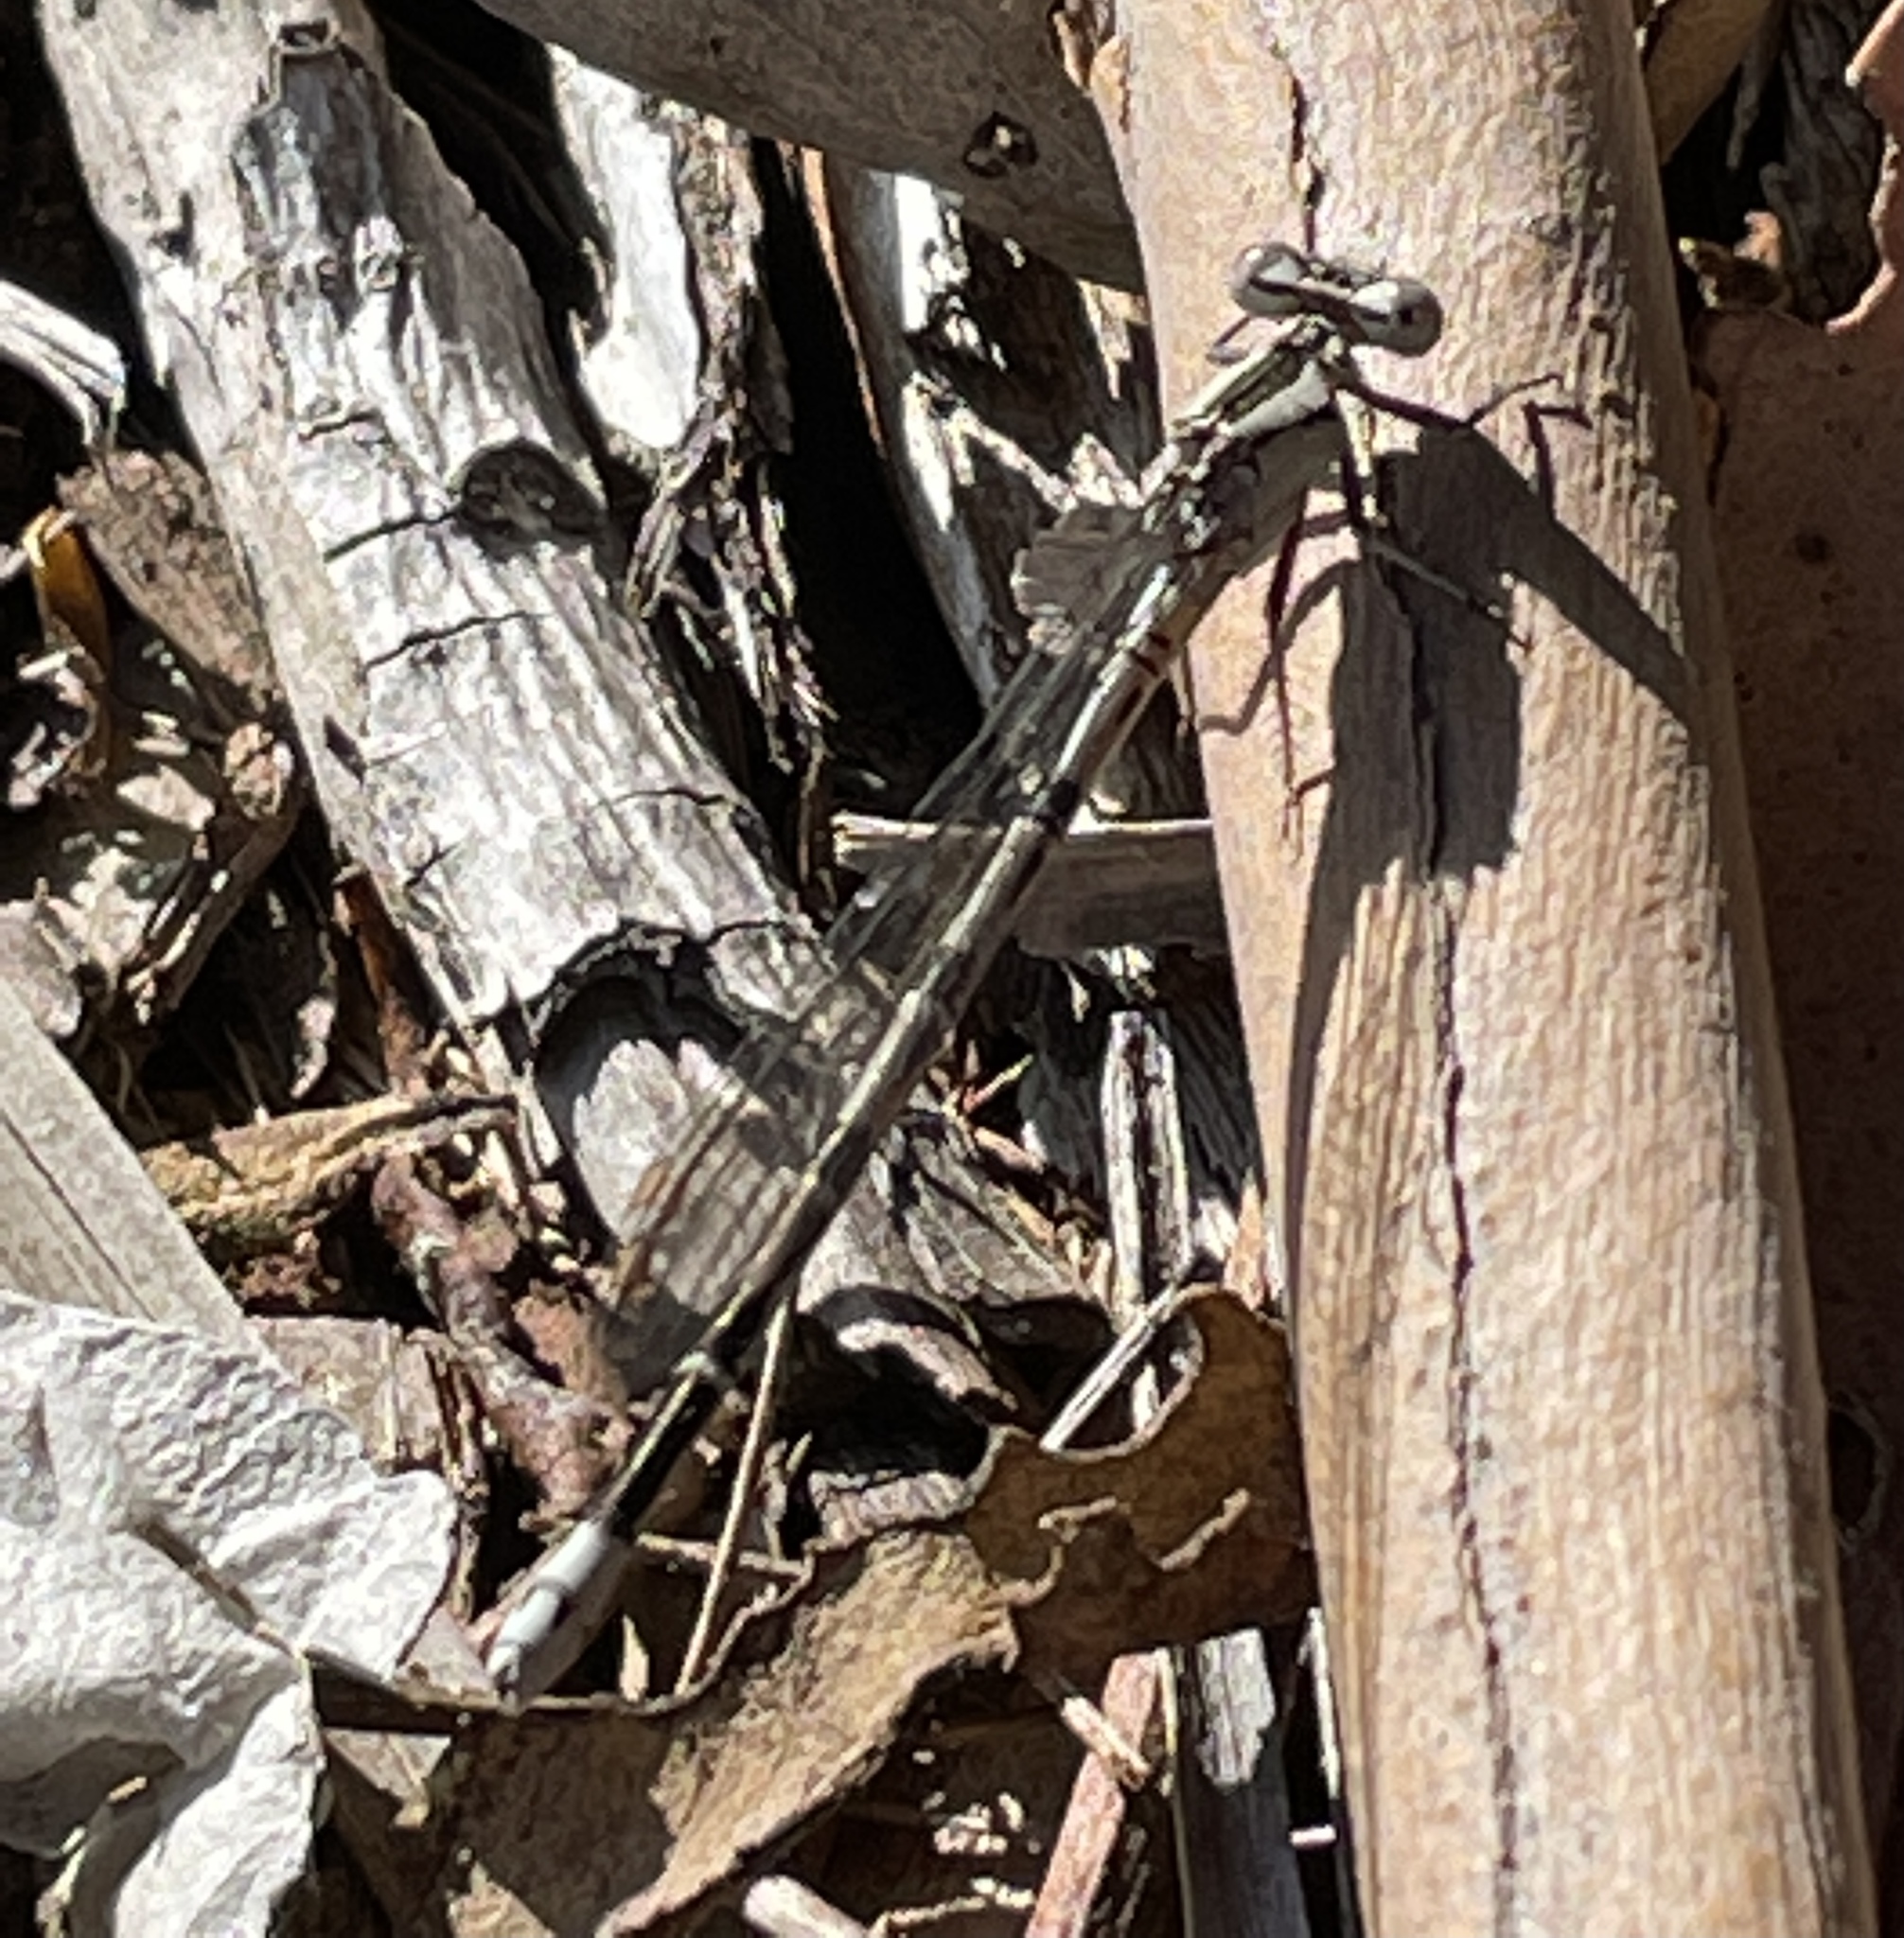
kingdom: Animalia
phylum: Arthropoda
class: Insecta
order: Odonata
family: Coenagrionidae
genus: Argia
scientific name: Argia vivida
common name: Vivid dancer
